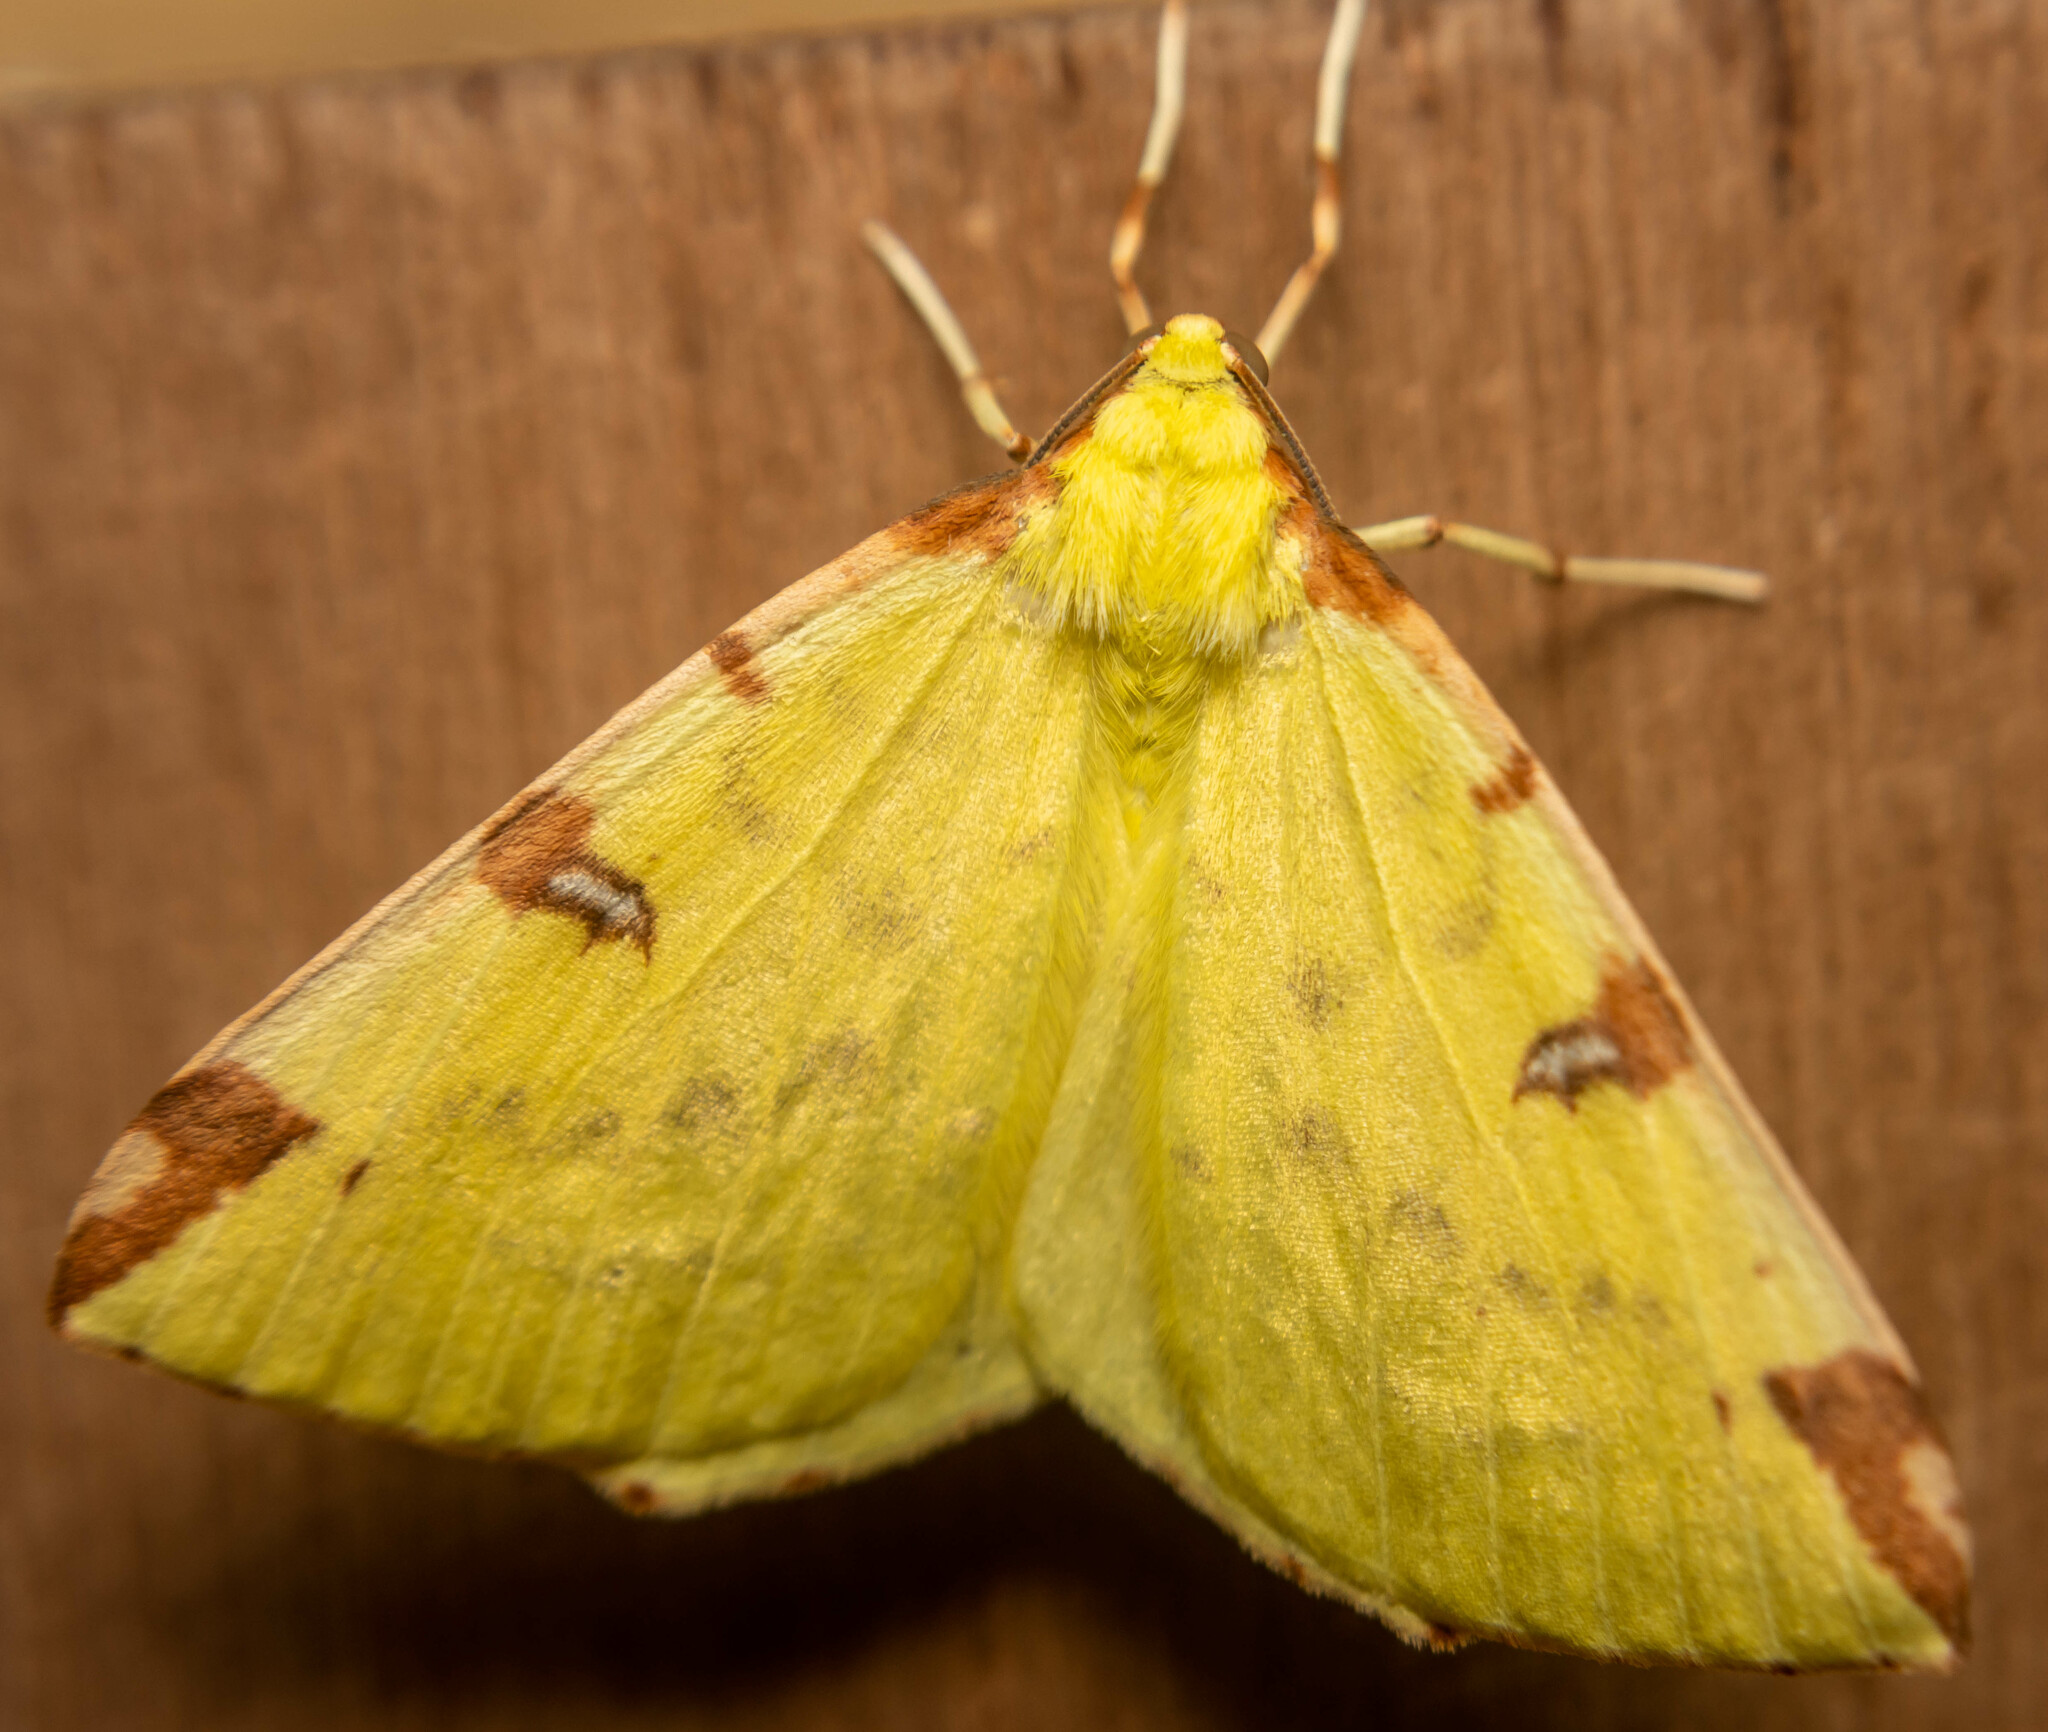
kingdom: Animalia
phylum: Arthropoda
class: Insecta
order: Lepidoptera
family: Geometridae
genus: Opisthograptis
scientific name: Opisthograptis luteolata
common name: Brimstone moth
